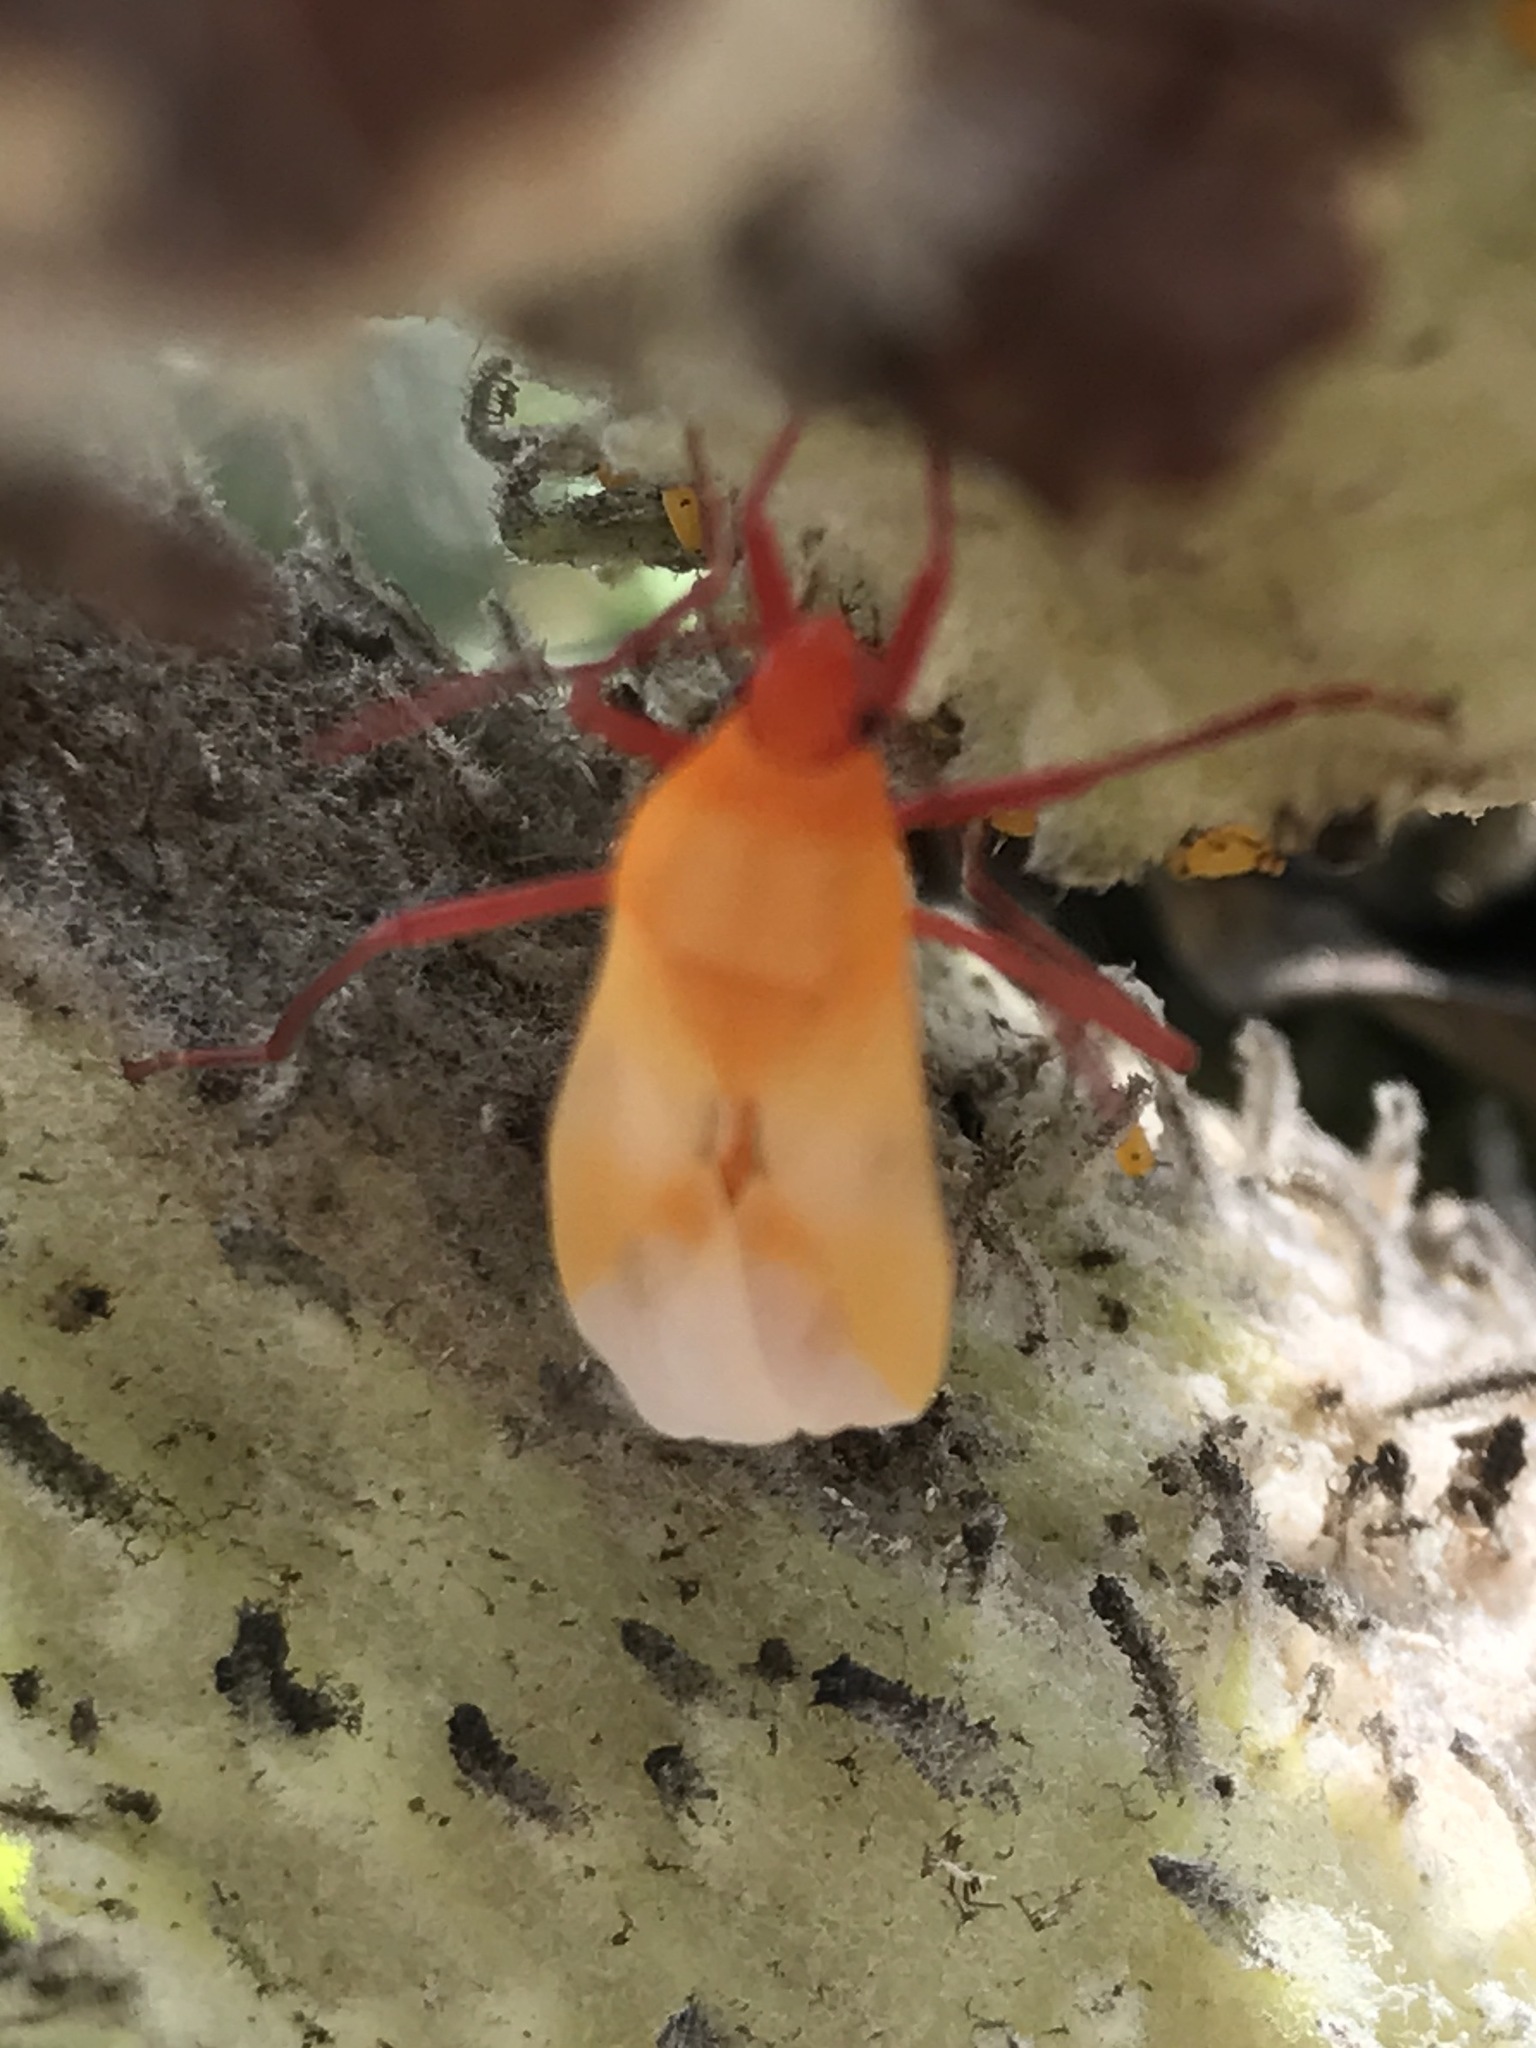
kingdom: Animalia
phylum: Arthropoda
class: Insecta
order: Hemiptera
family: Lygaeidae
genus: Oncopeltus
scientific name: Oncopeltus fasciatus
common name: Large milkweed bug
